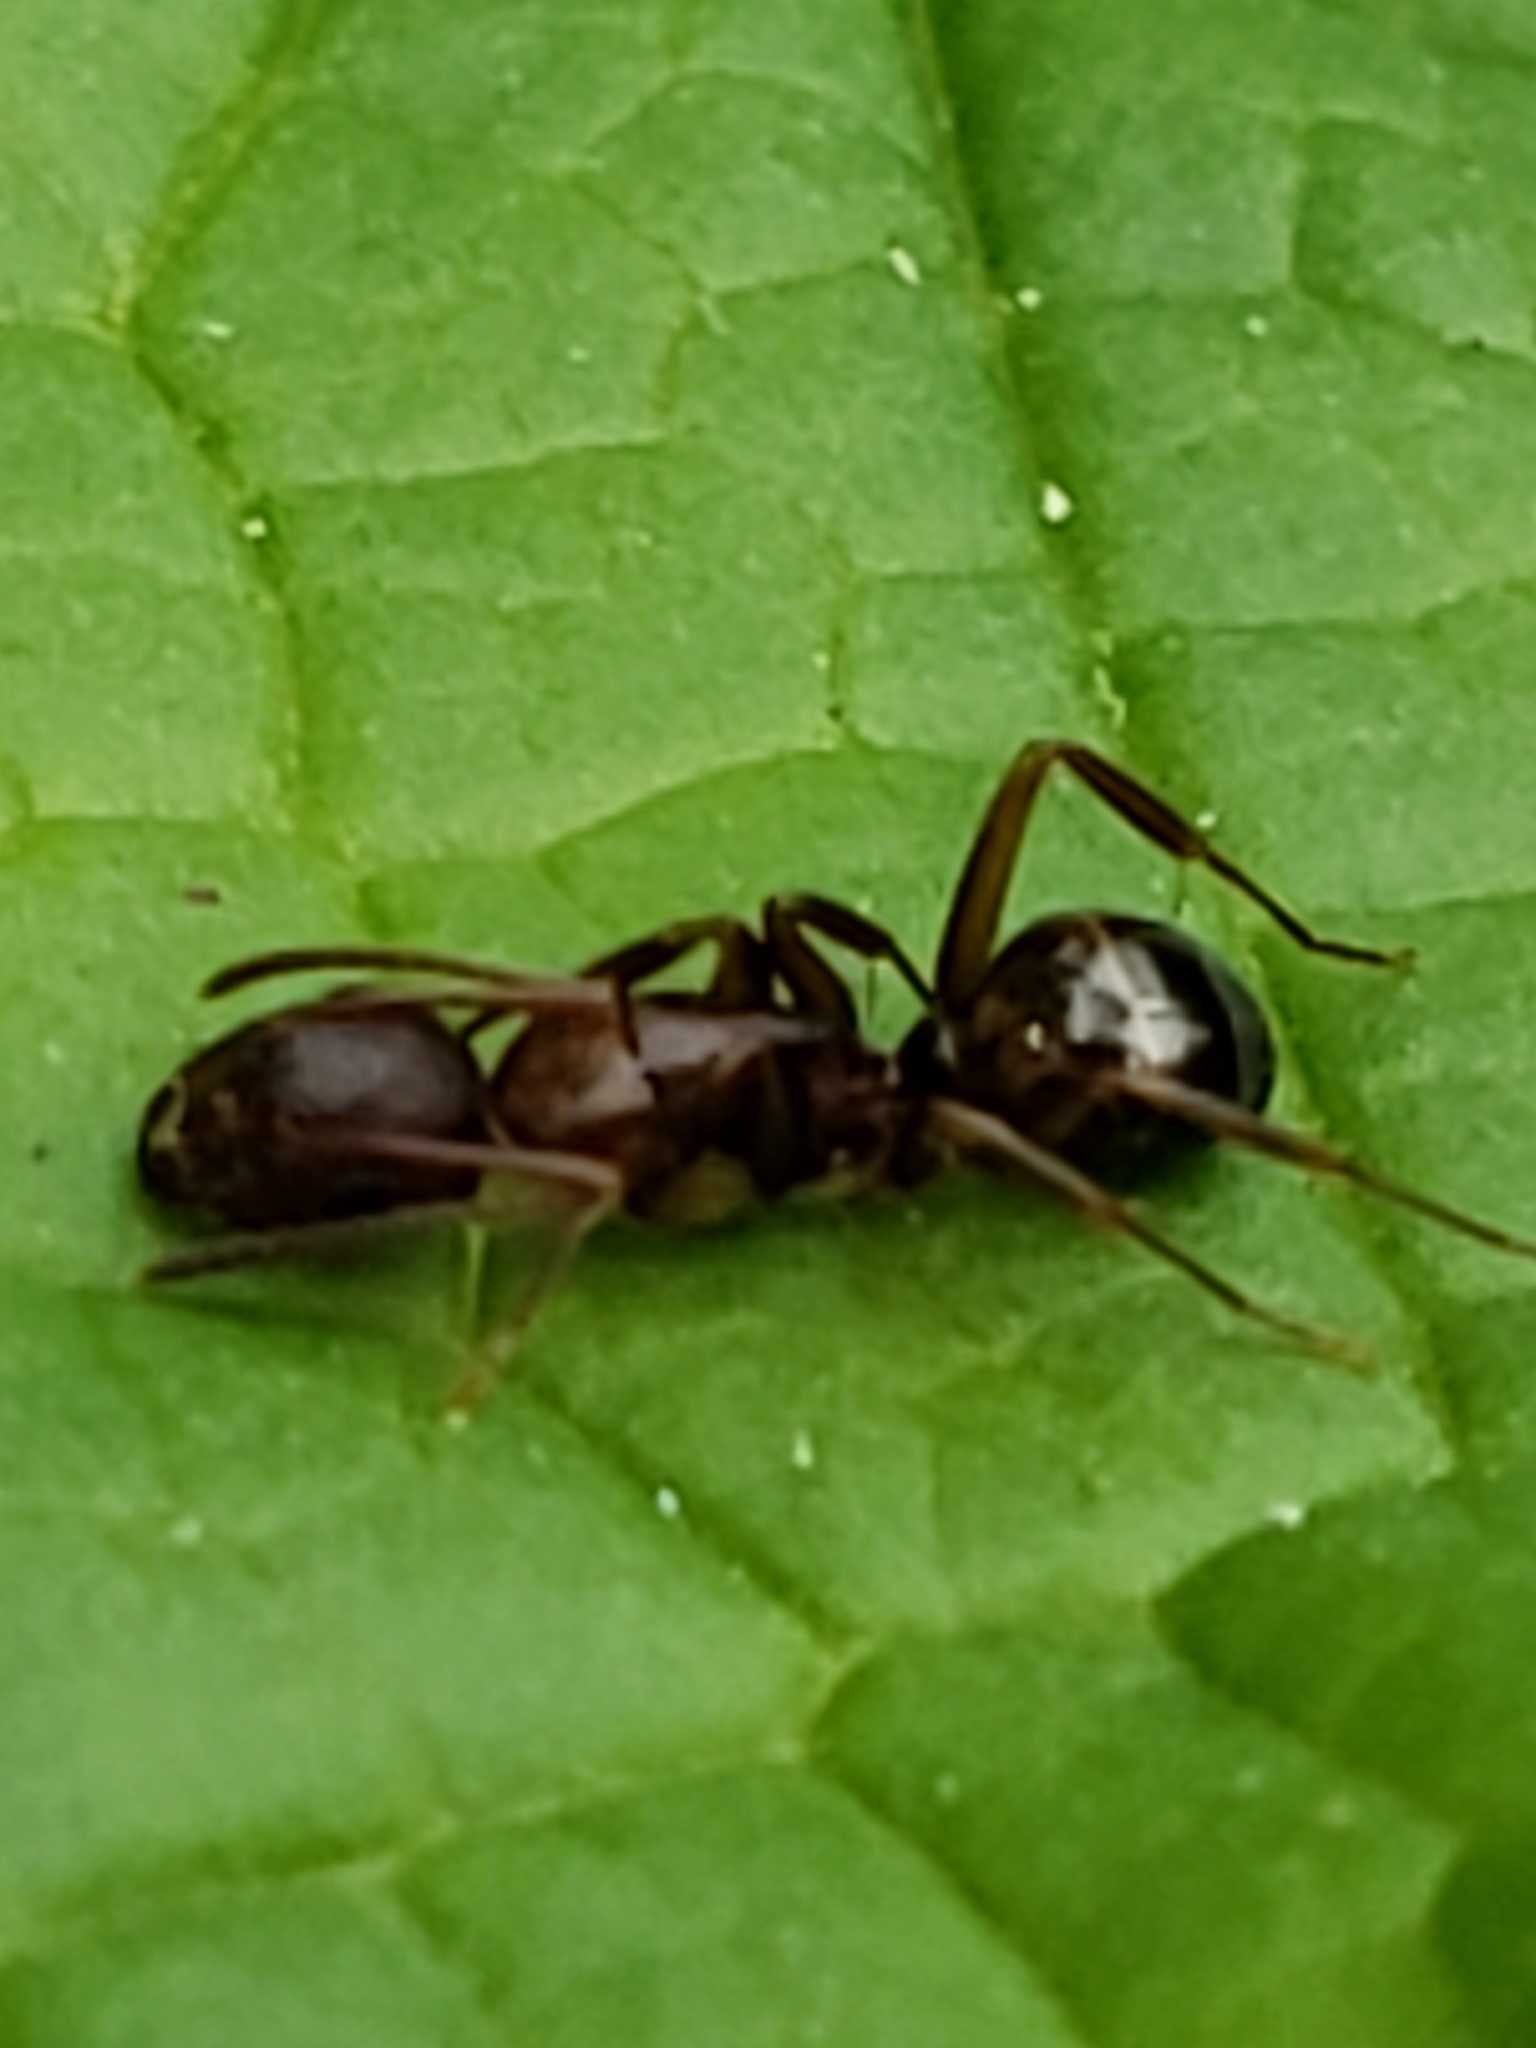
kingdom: Animalia
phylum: Arthropoda
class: Insecta
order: Hymenoptera
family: Formicidae
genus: Camponotus
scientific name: Camponotus subbarbatus
